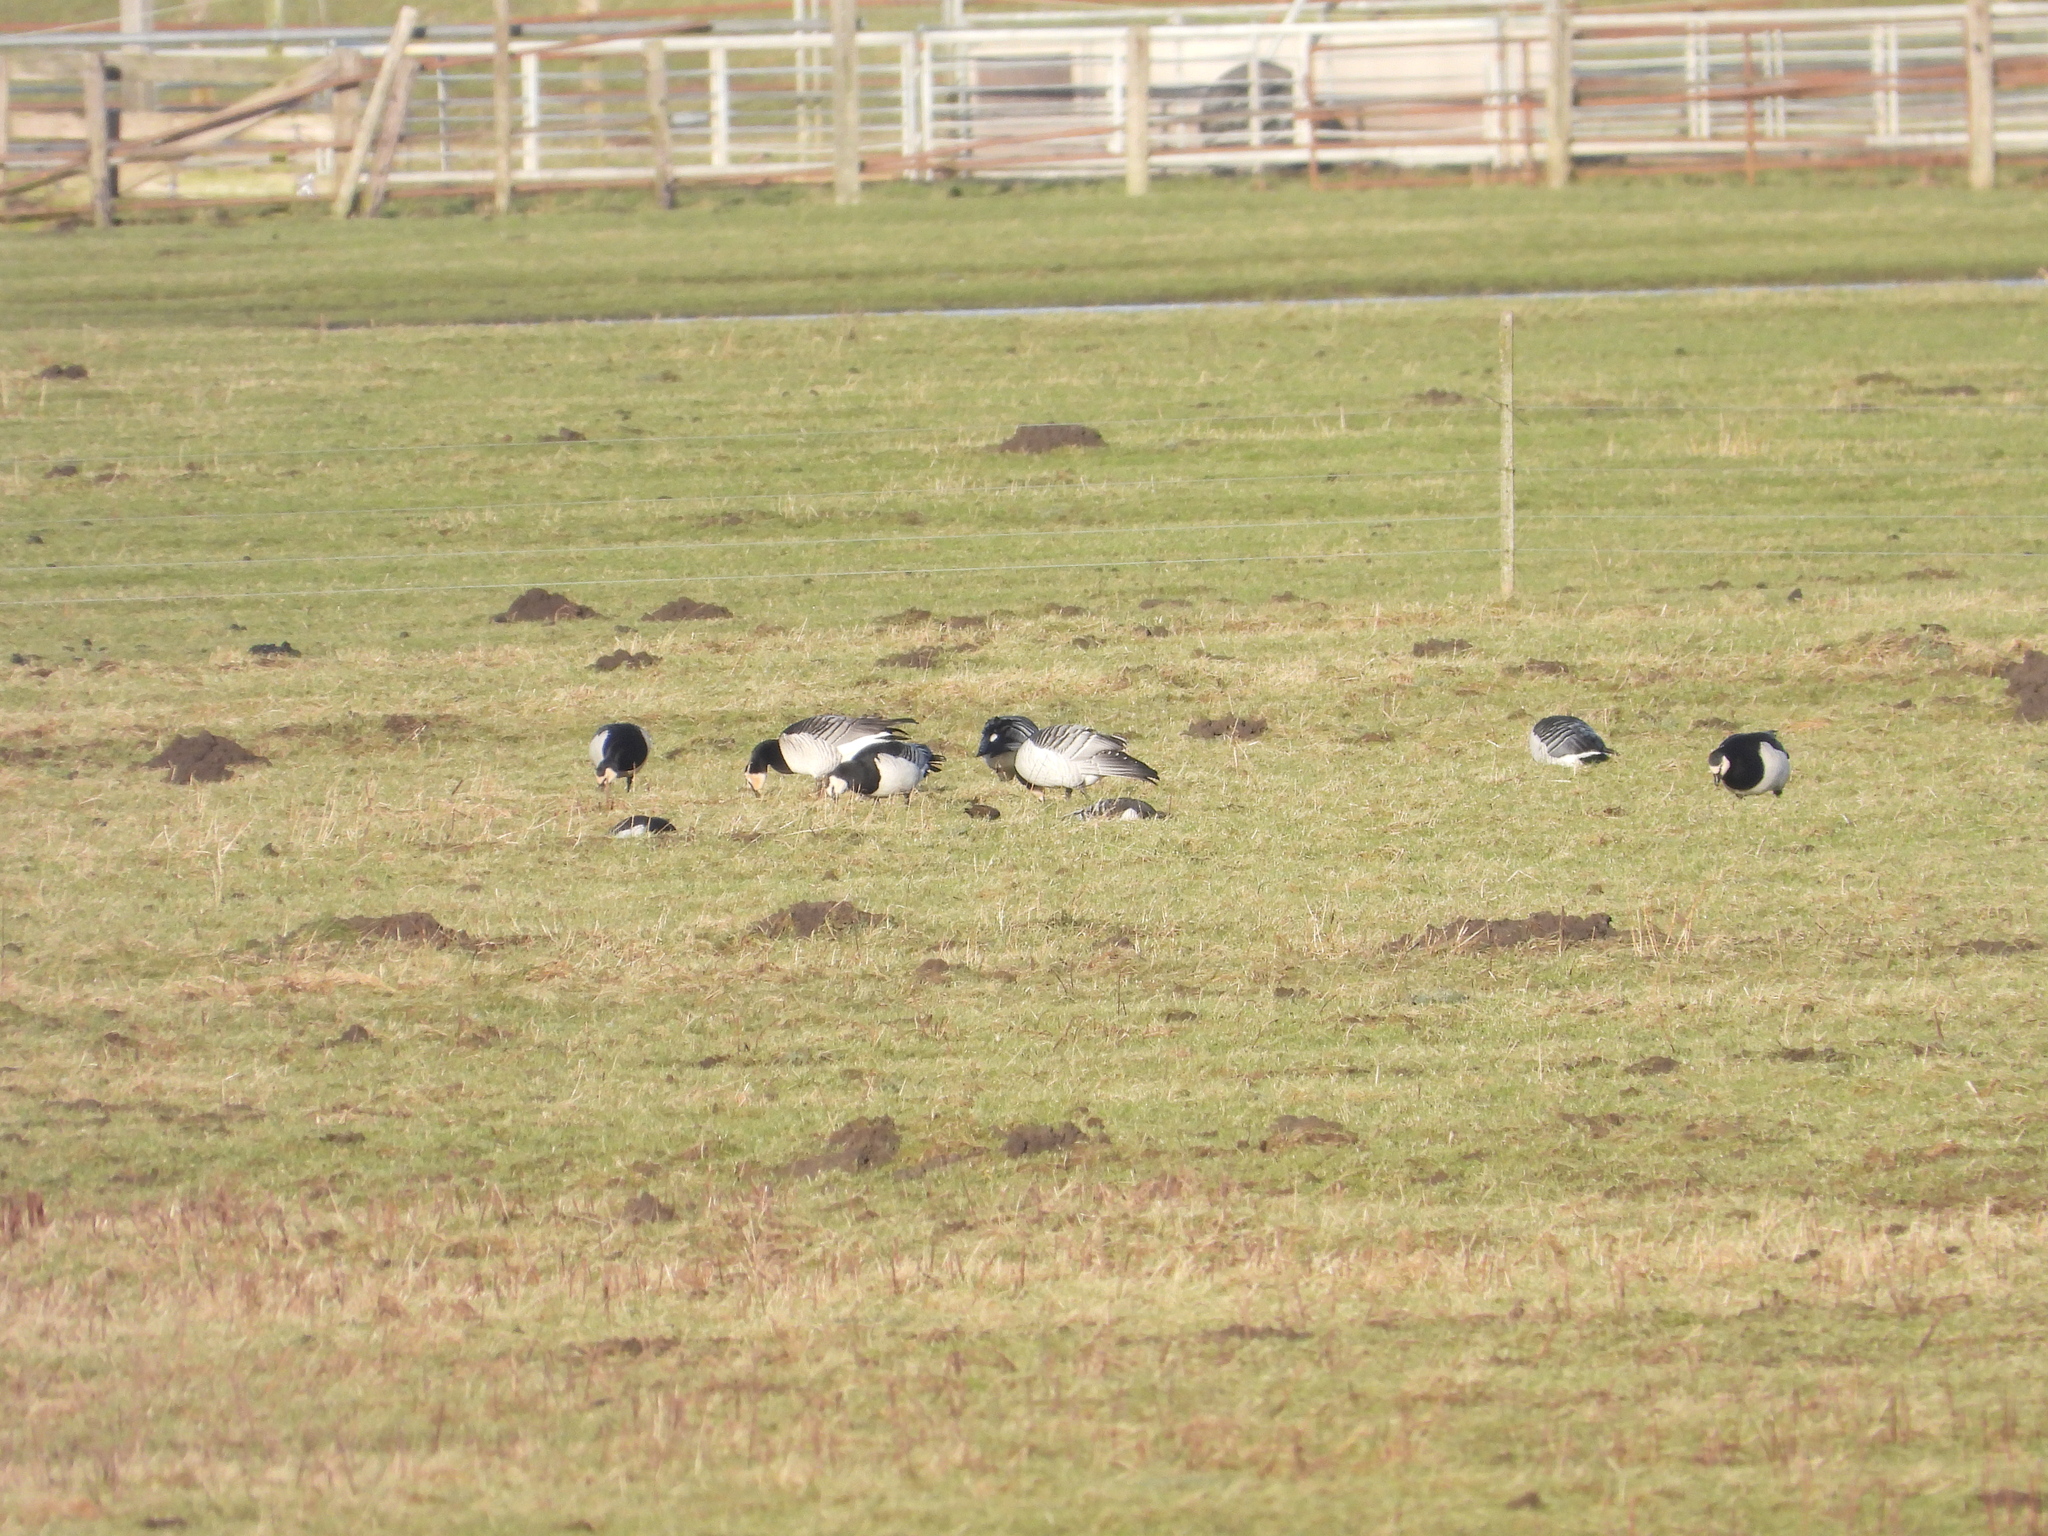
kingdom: Animalia
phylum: Chordata
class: Aves
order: Anseriformes
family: Anatidae
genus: Branta
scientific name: Branta leucopsis
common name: Barnacle goose
